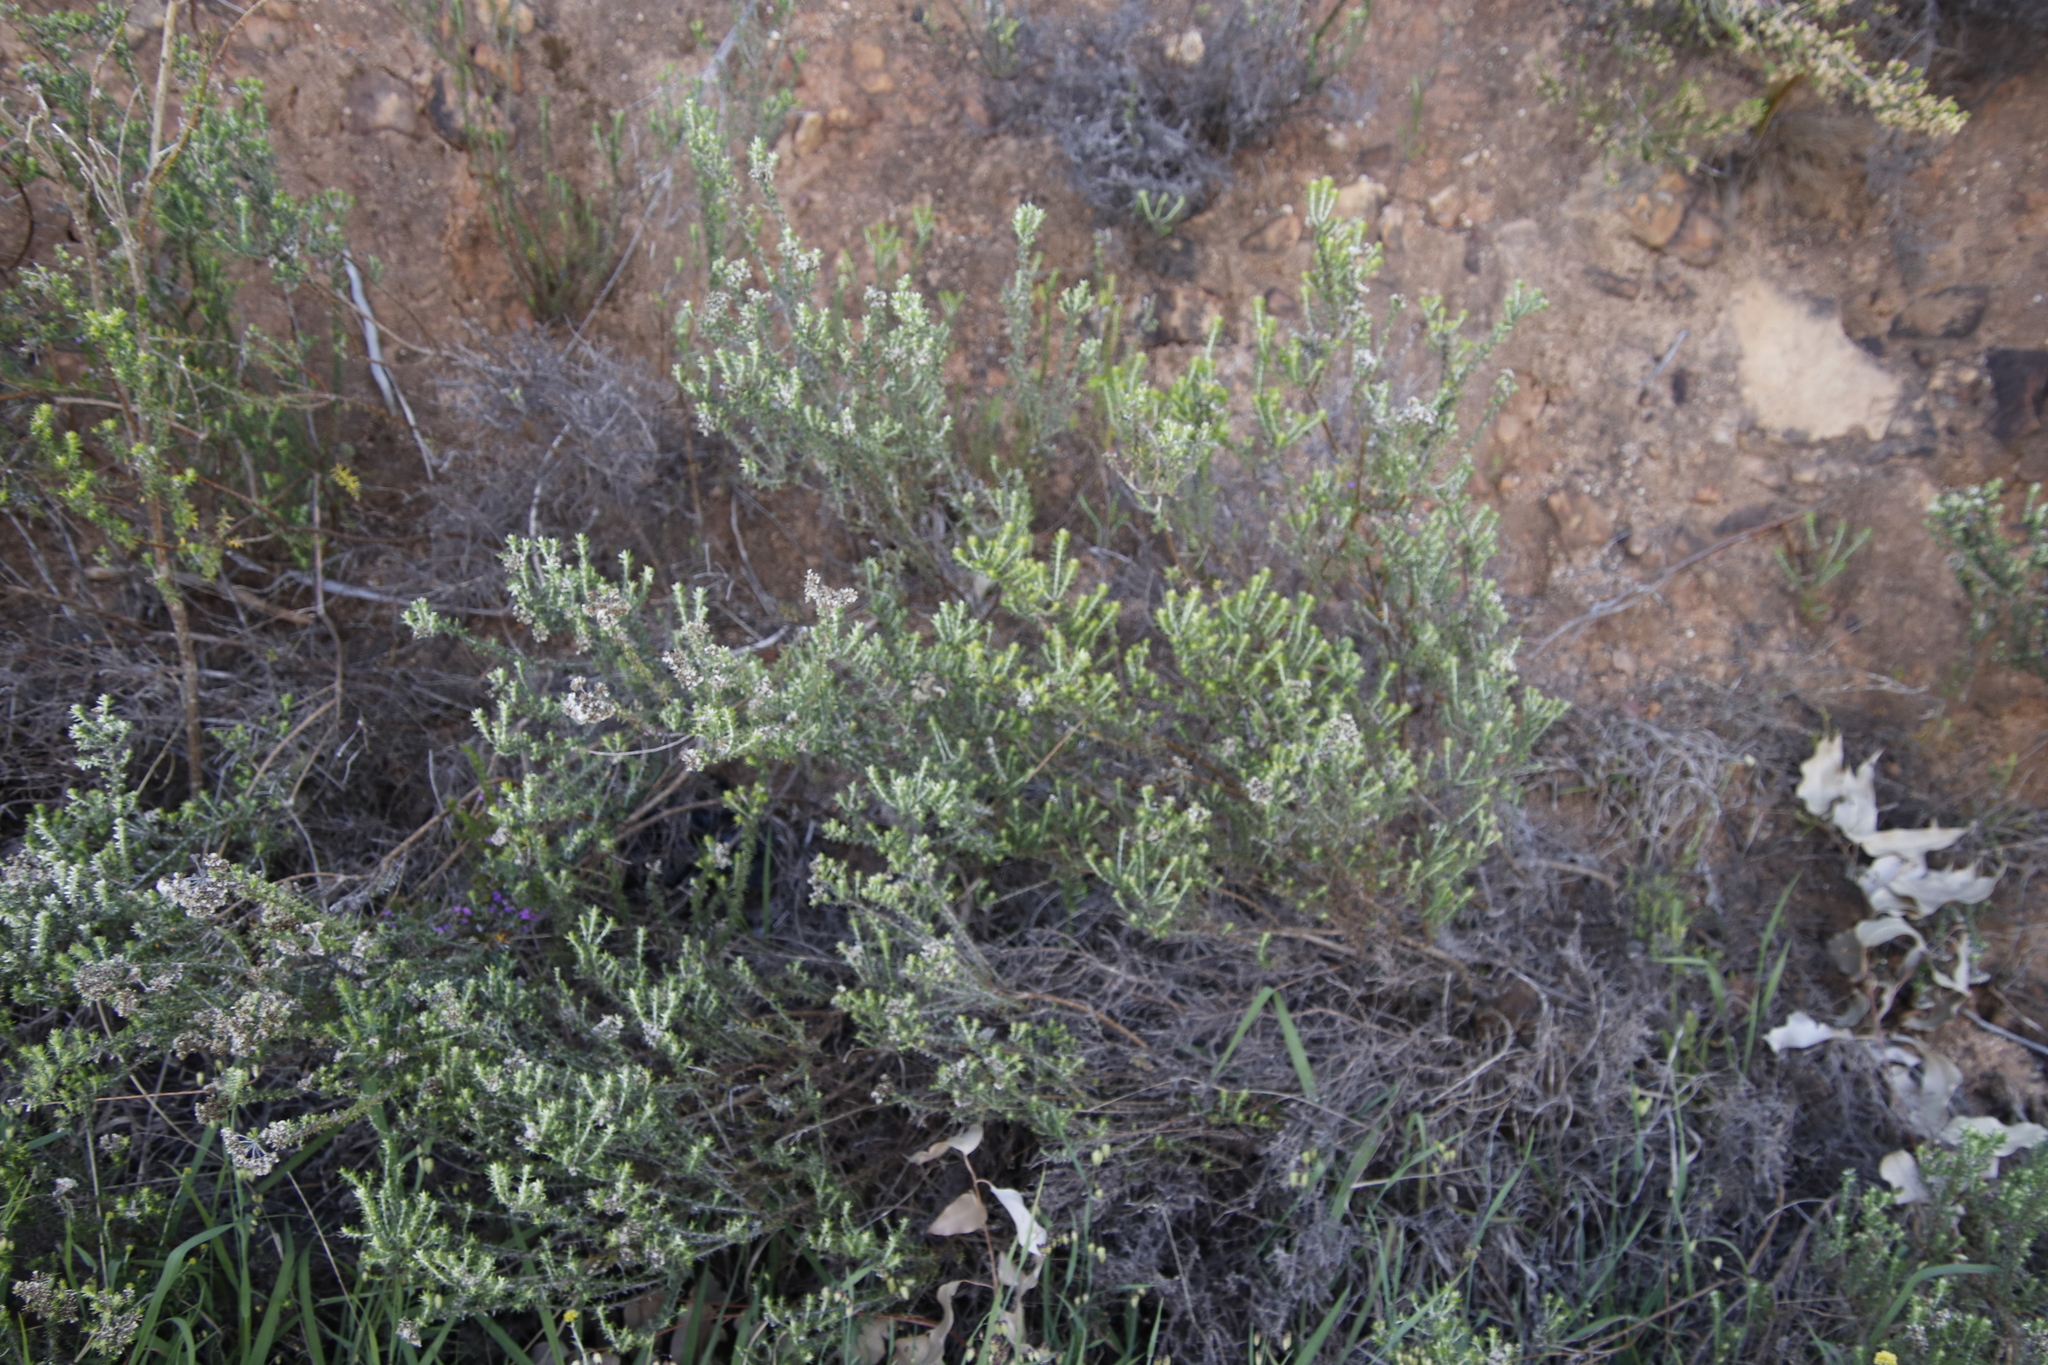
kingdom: Plantae
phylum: Tracheophyta
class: Magnoliopsida
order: Asterales
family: Asteraceae
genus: Metalasia
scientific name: Metalasia densa
